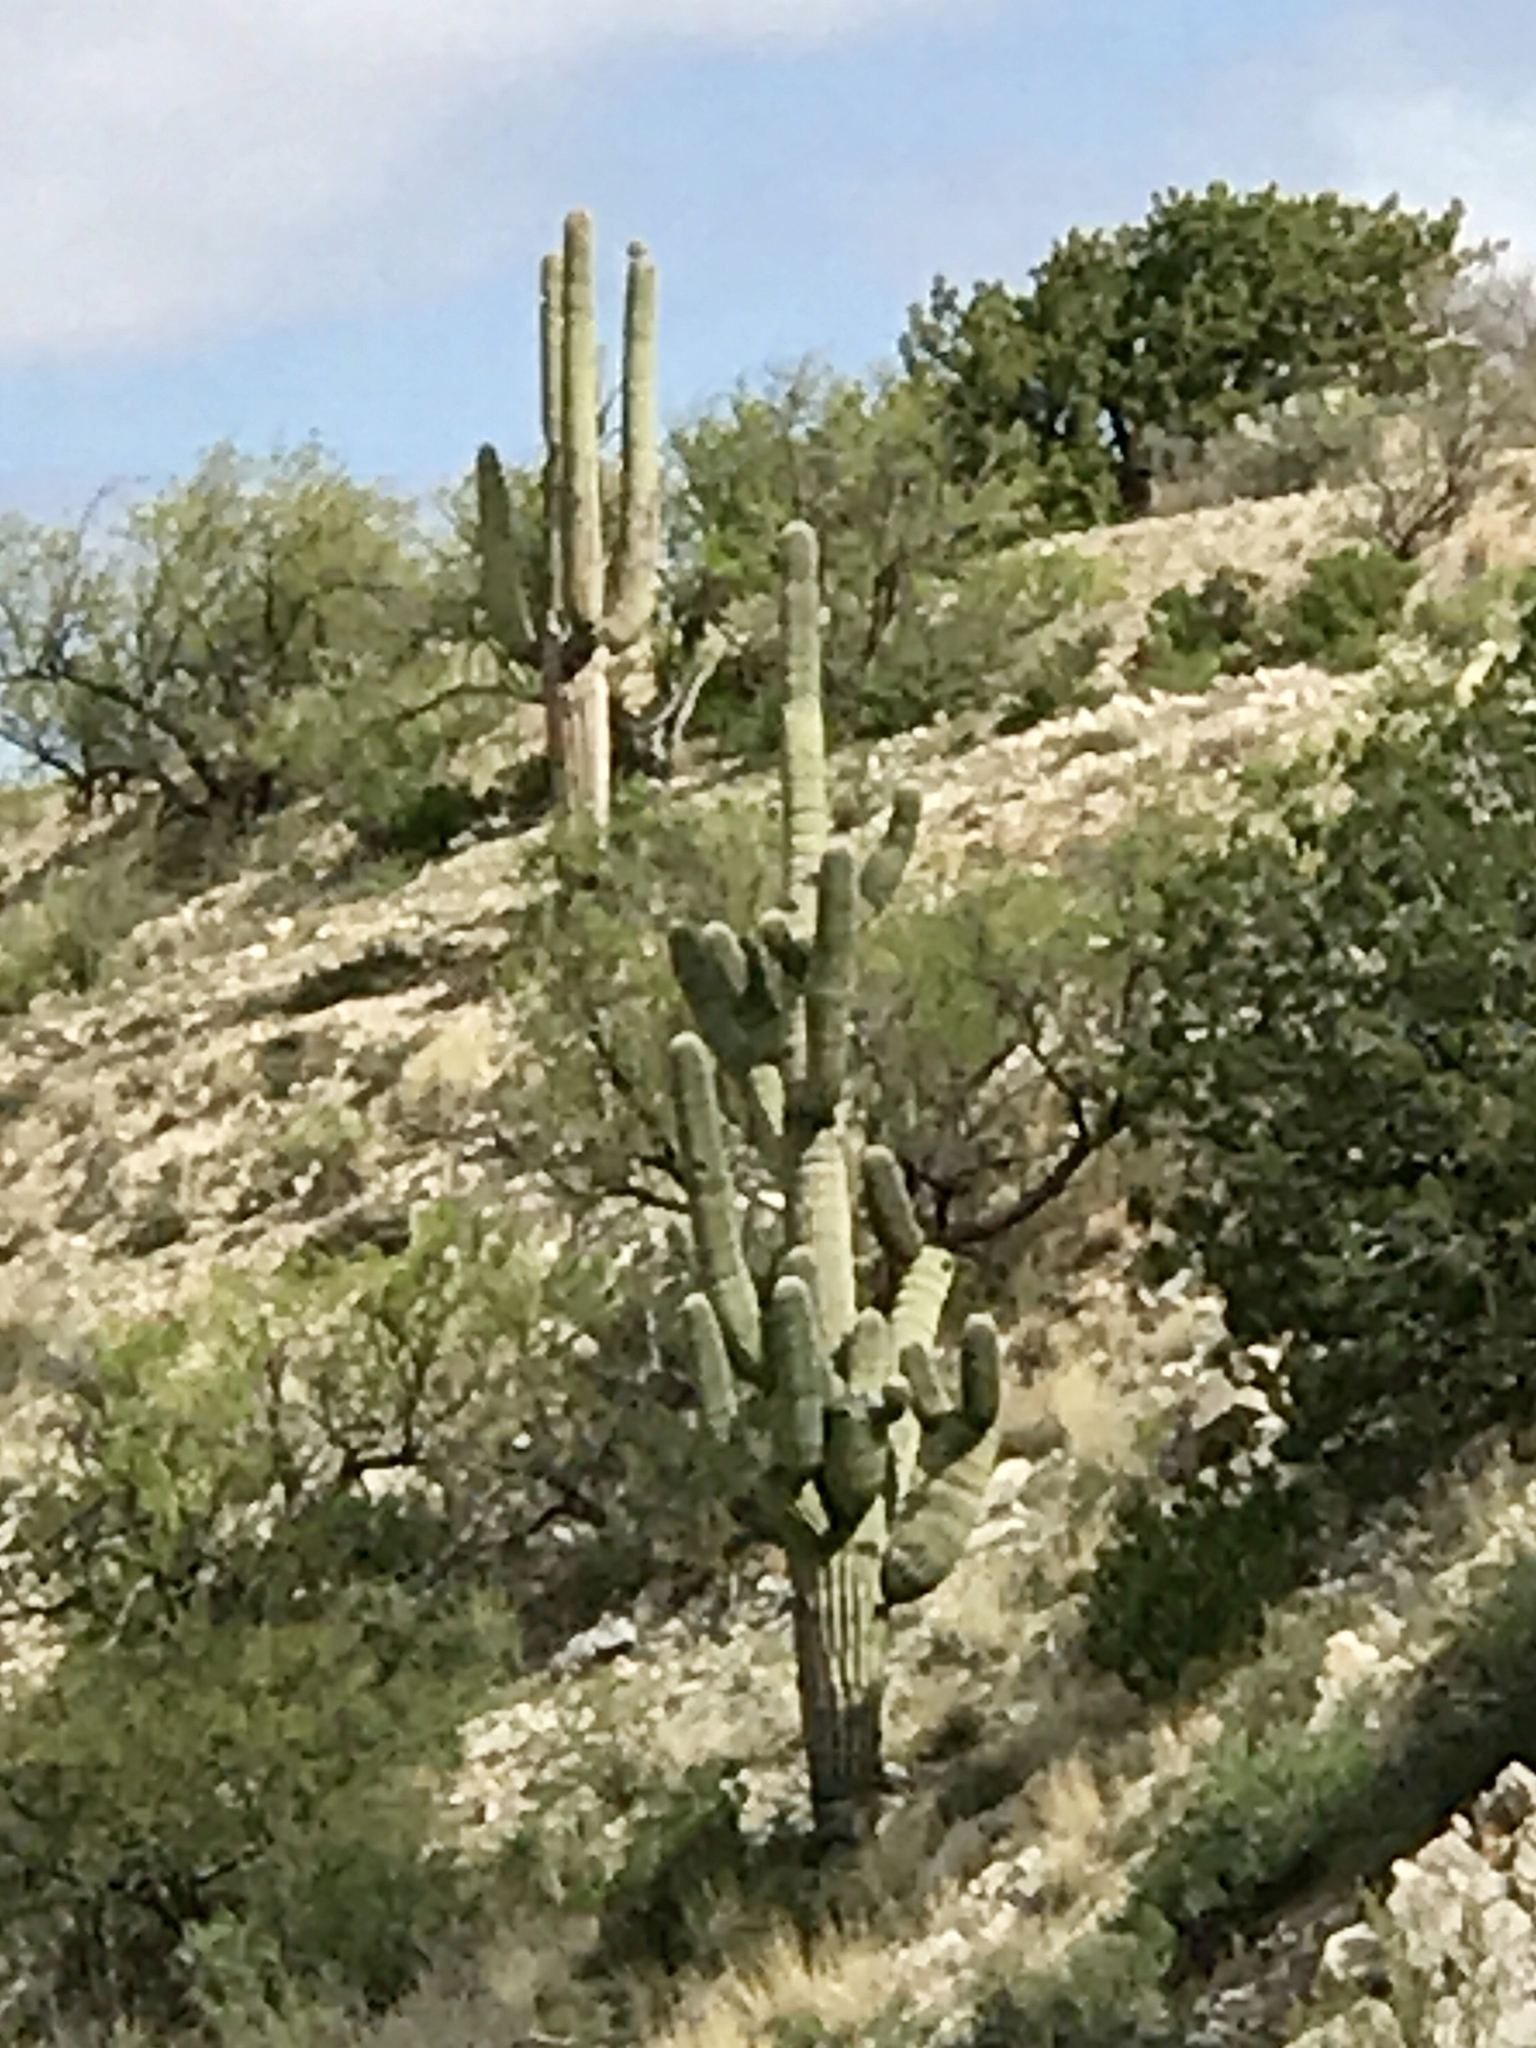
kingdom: Plantae
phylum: Tracheophyta
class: Magnoliopsida
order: Caryophyllales
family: Cactaceae
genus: Carnegiea
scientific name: Carnegiea gigantea
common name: Saguaro
